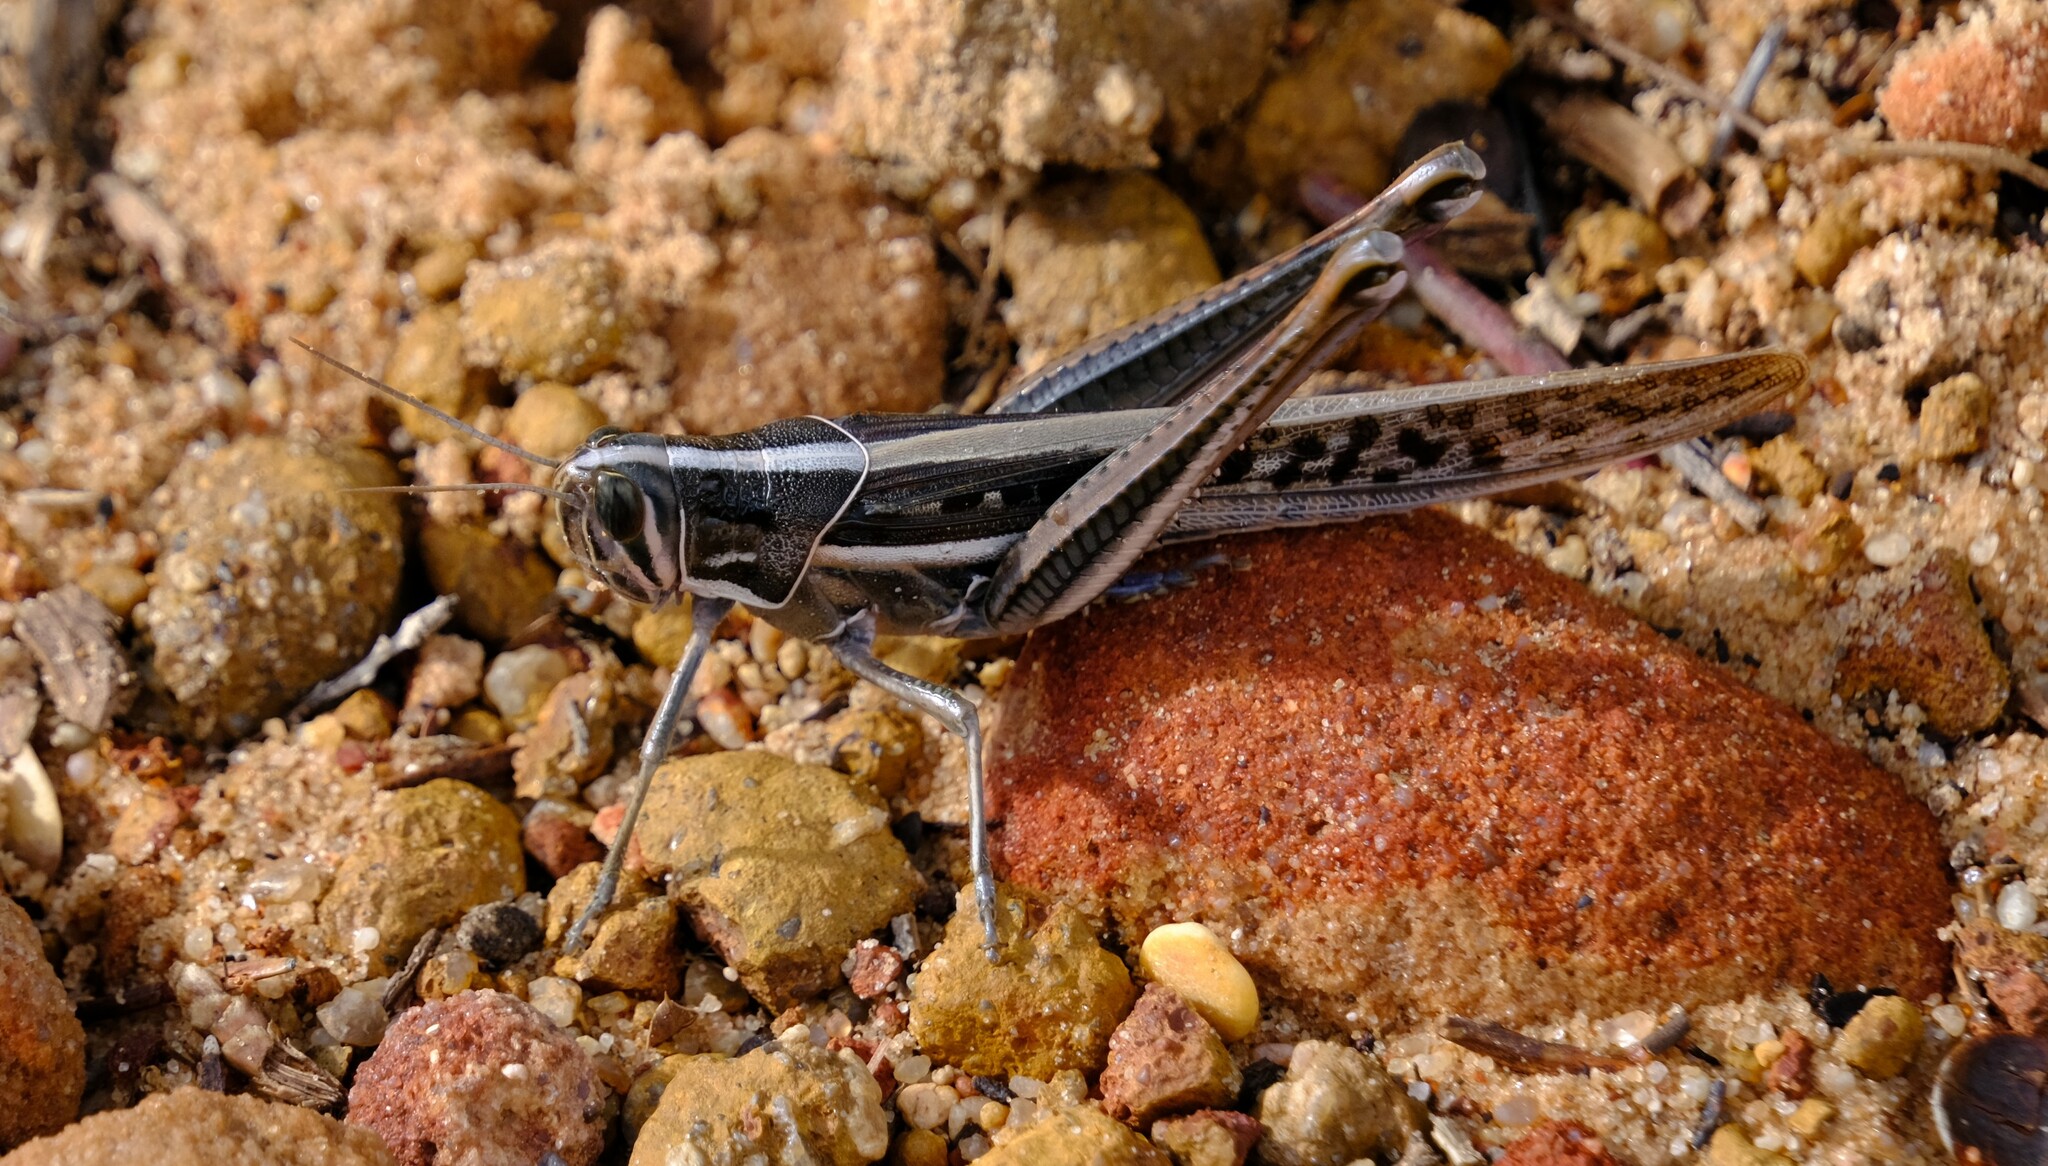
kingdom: Animalia
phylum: Arthropoda
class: Insecta
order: Orthoptera
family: Acrididae
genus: Austracris
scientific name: Austracris guttulosa
